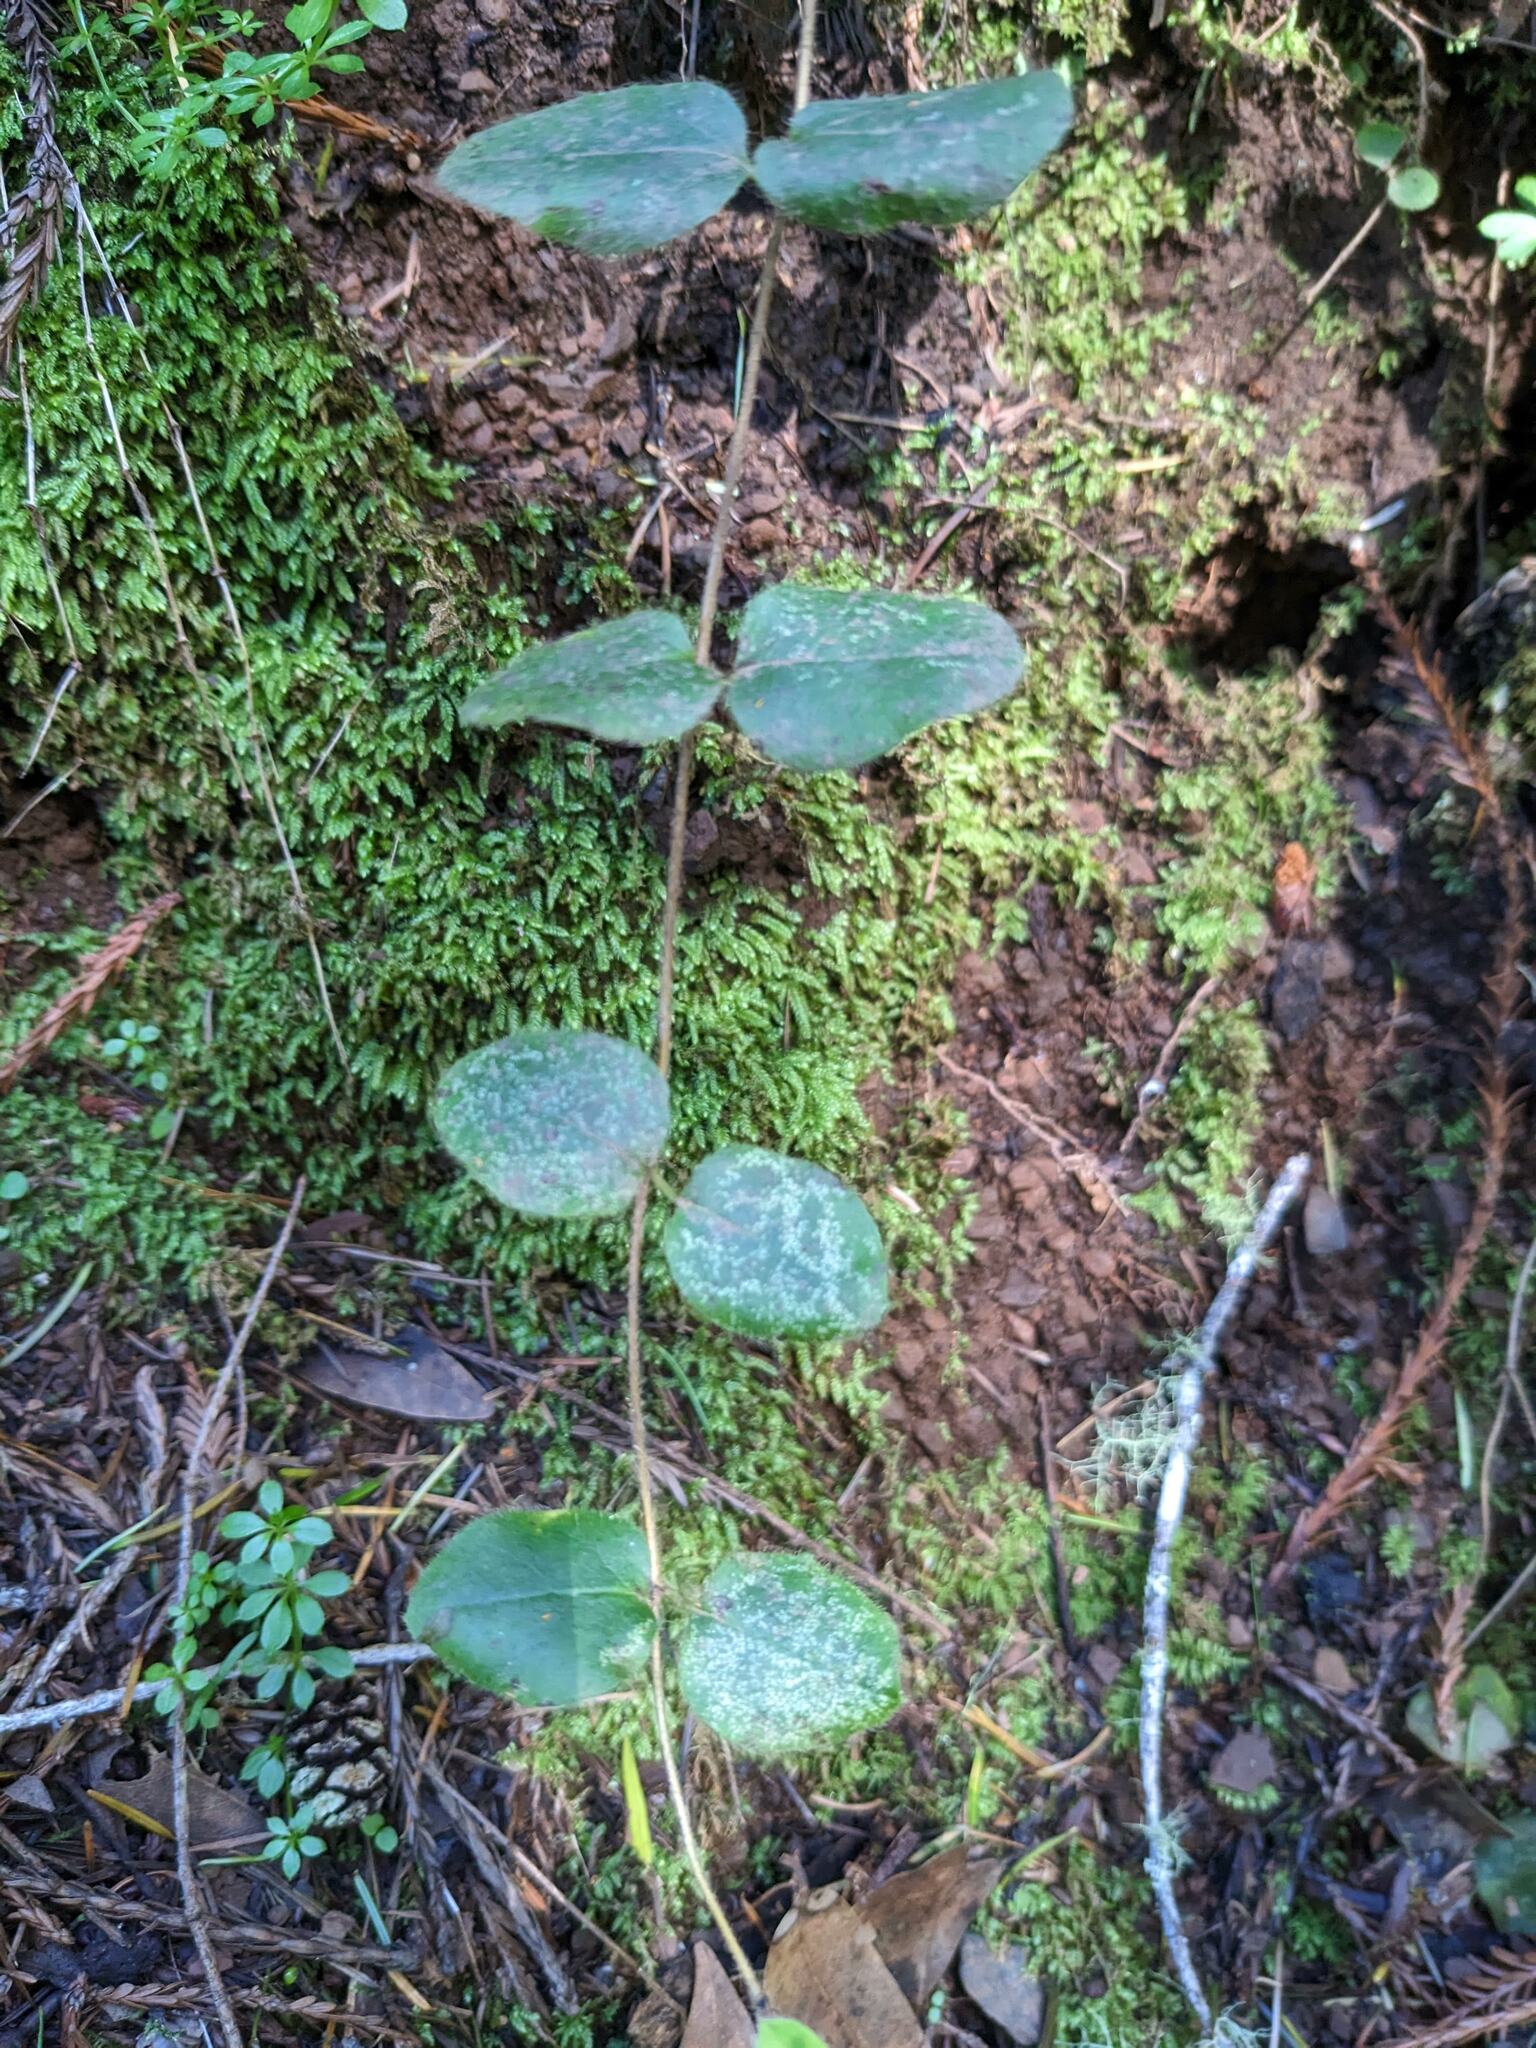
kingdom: Plantae
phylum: Tracheophyta
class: Magnoliopsida
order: Dipsacales
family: Caprifoliaceae
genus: Lonicera
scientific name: Lonicera hispidula
